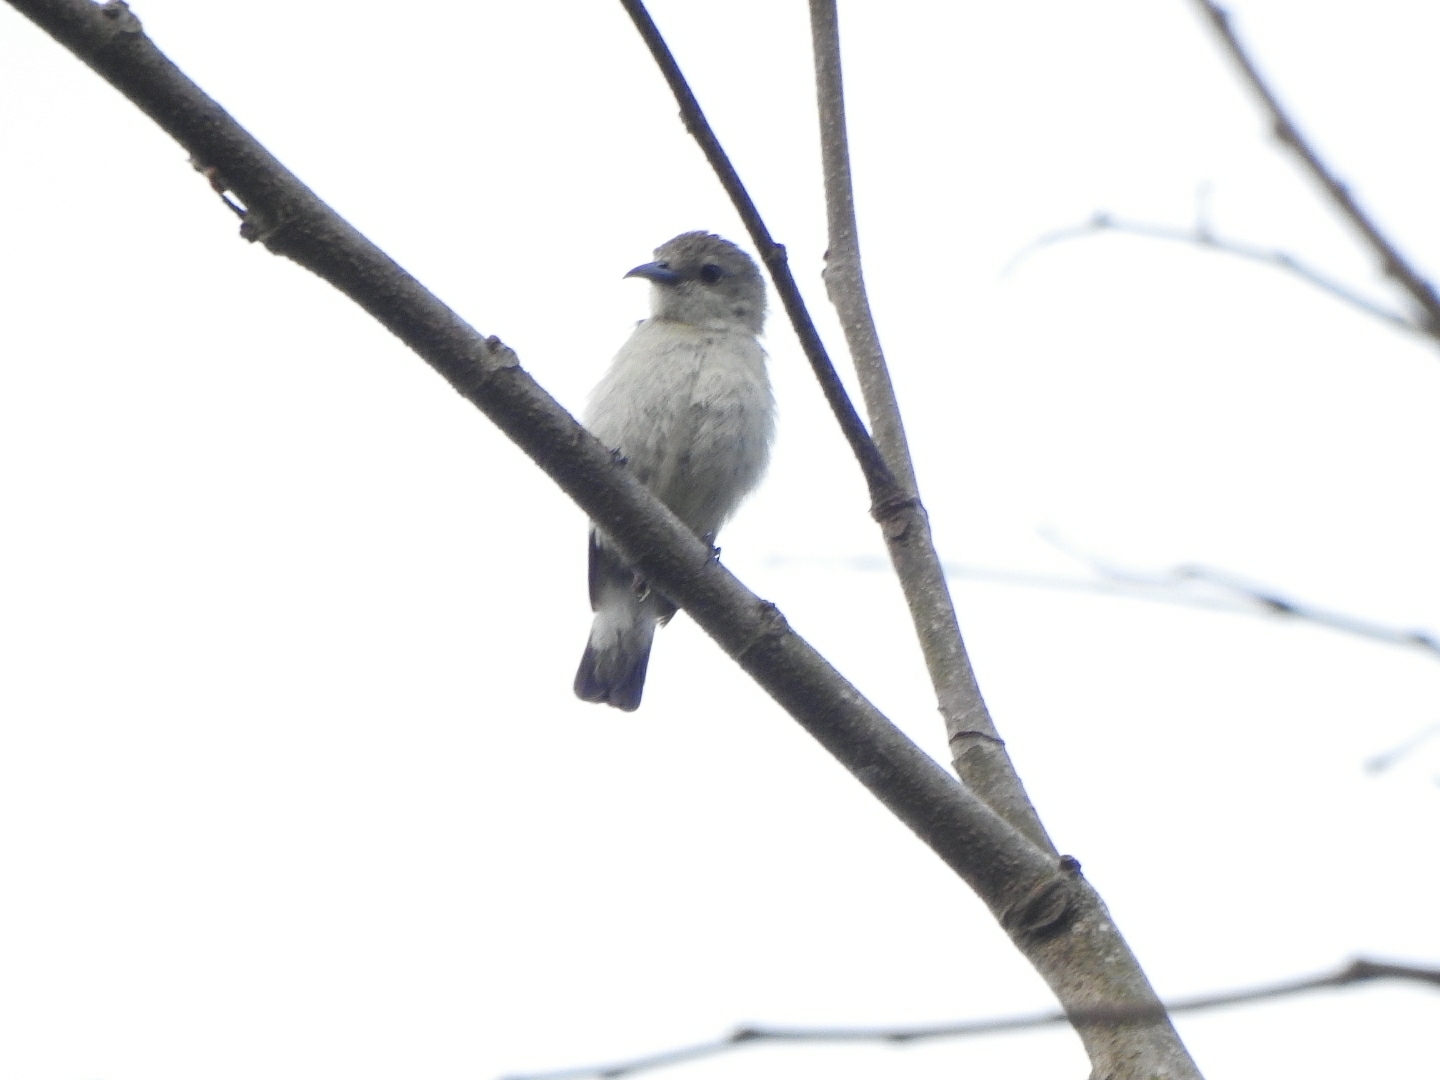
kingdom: Animalia
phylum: Chordata
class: Aves
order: Passeriformes
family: Dicaeidae
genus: Dicaeum
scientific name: Dicaeum concolor
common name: Nilgiri flowerpecker
